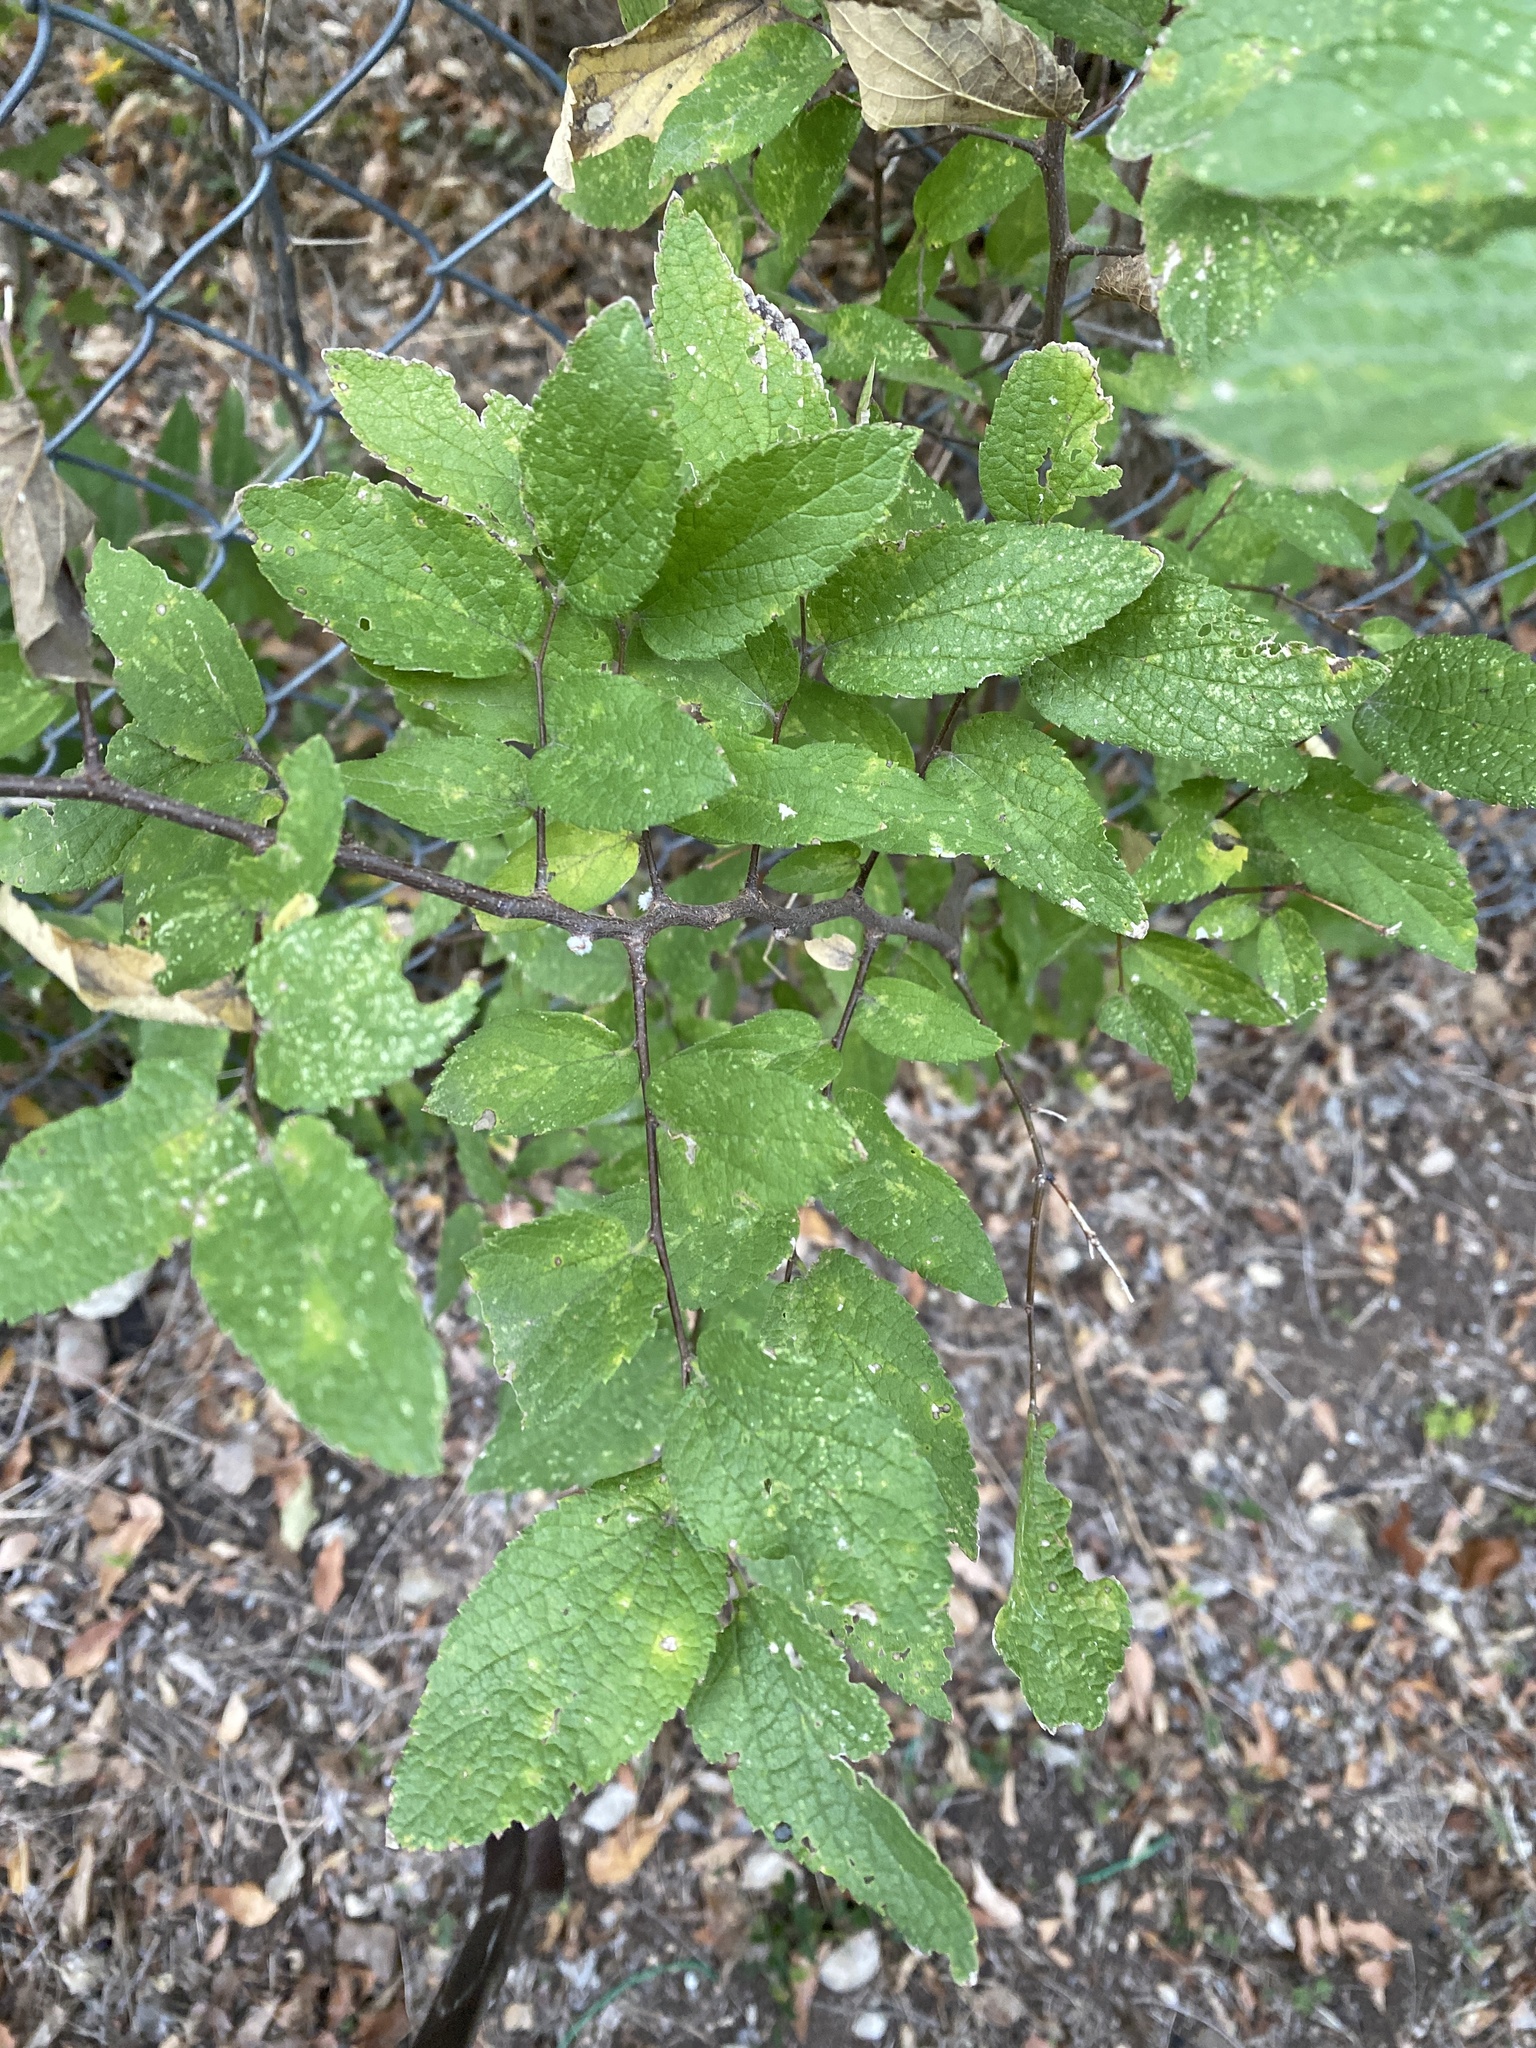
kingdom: Plantae
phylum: Tracheophyta
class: Magnoliopsida
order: Rosales
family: Cannabaceae
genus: Celtis
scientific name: Celtis reticulata
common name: Netleaf hackberry
